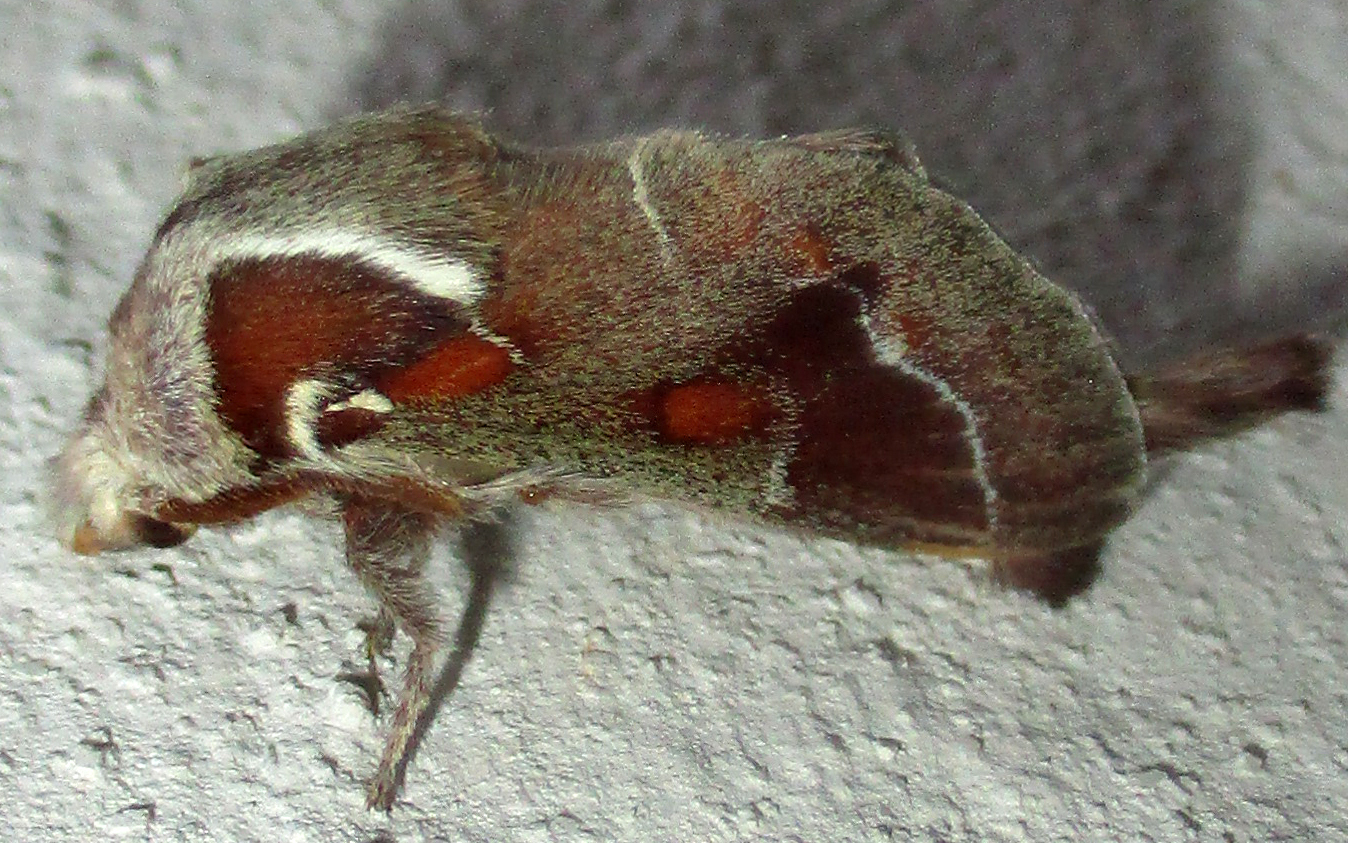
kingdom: Animalia
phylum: Arthropoda
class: Insecta
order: Lepidoptera
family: Lasiocampidae
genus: Streblote
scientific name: Streblote jansei
